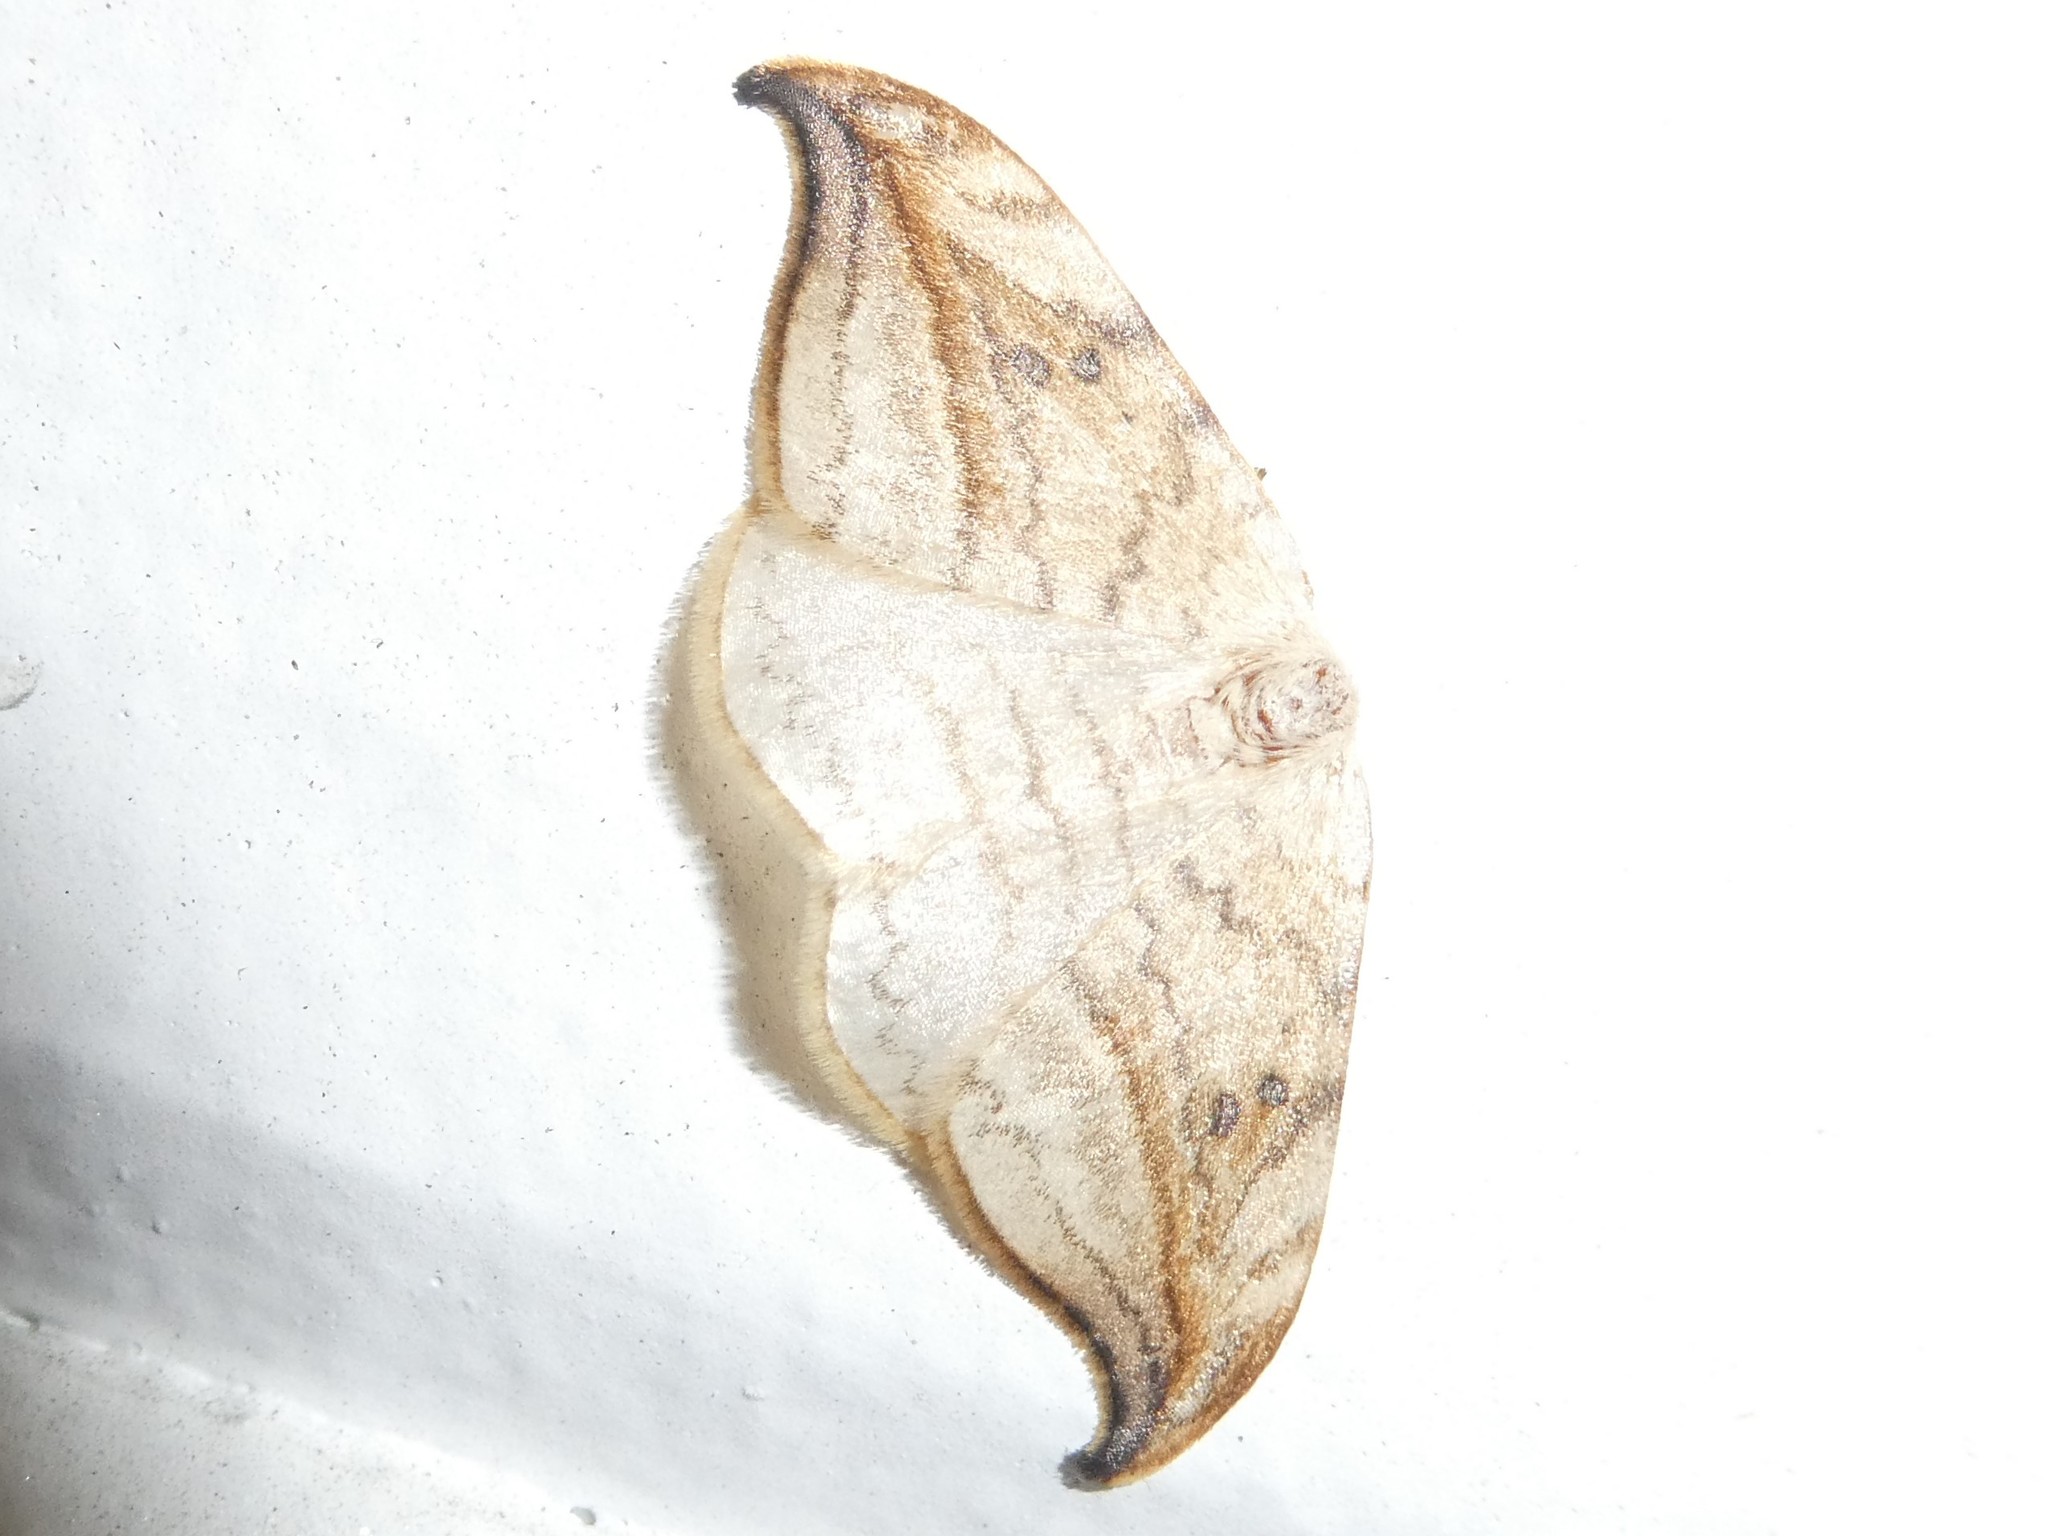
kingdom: Animalia
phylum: Arthropoda
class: Insecta
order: Lepidoptera
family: Drepanidae
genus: Drepana
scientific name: Drepana arcuata
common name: Arched hooktip moth
